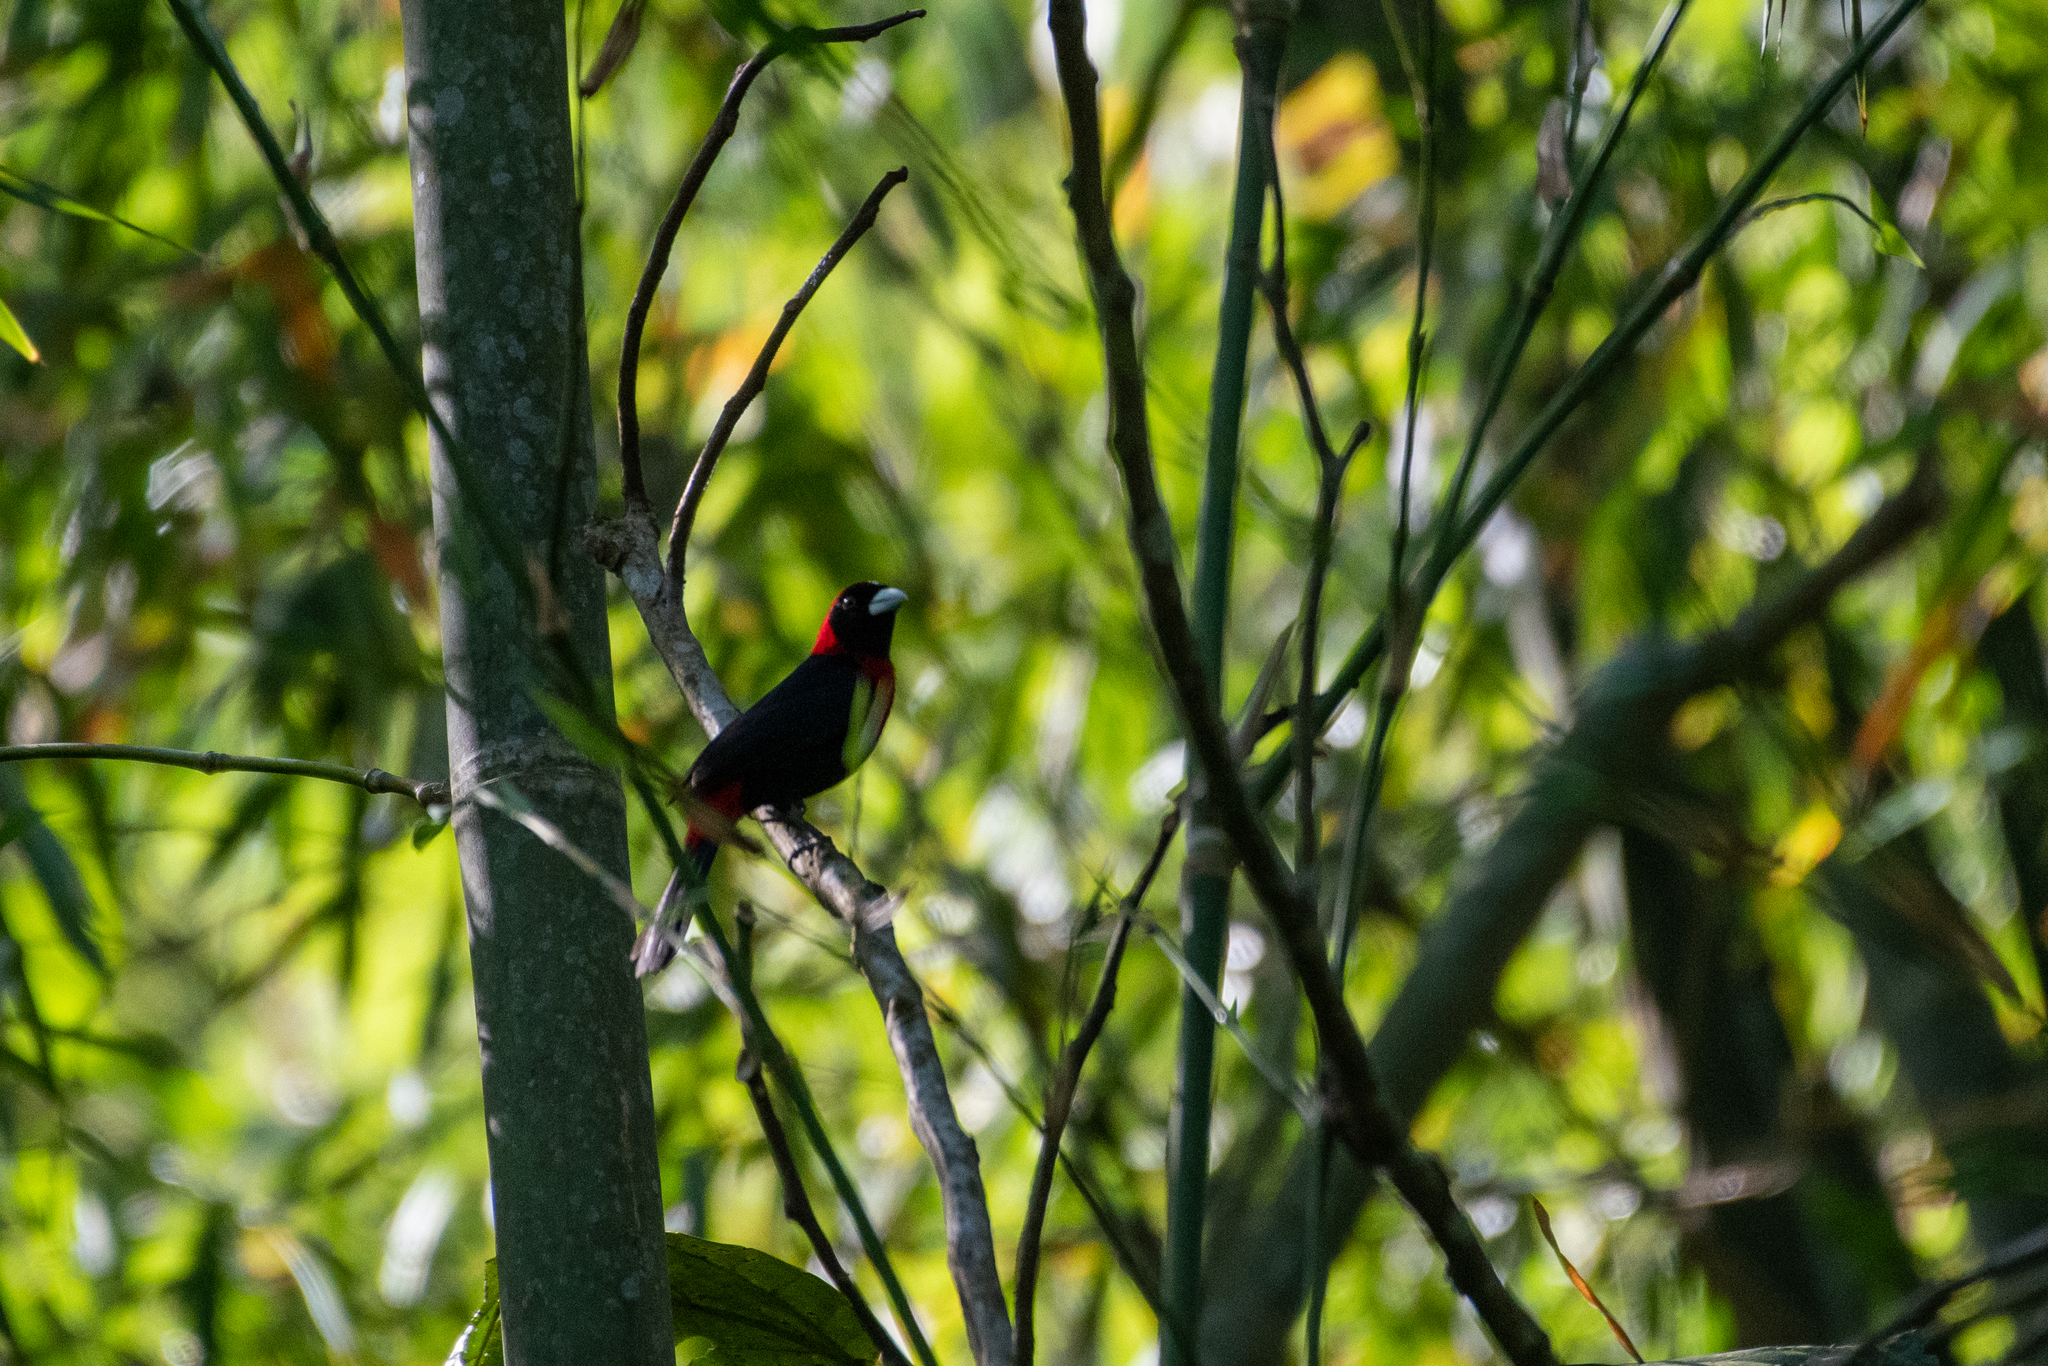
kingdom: Animalia
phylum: Chordata
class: Aves
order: Passeriformes
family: Thraupidae
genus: Ramphocelus
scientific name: Ramphocelus sanguinolentus
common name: Crimson-collared tanager
